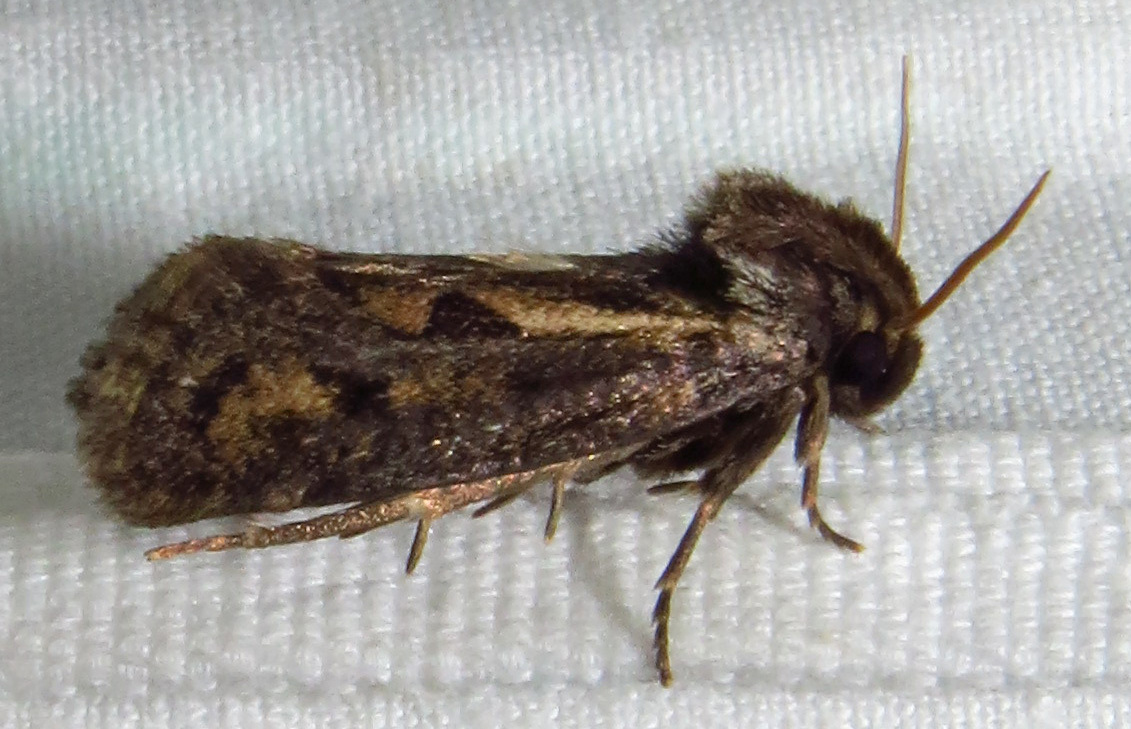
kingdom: Animalia
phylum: Arthropoda
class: Insecta
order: Lepidoptera
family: Tineidae
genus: Acrolophus
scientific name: Acrolophus popeanella
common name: Clemens' grass tubeworm moth
